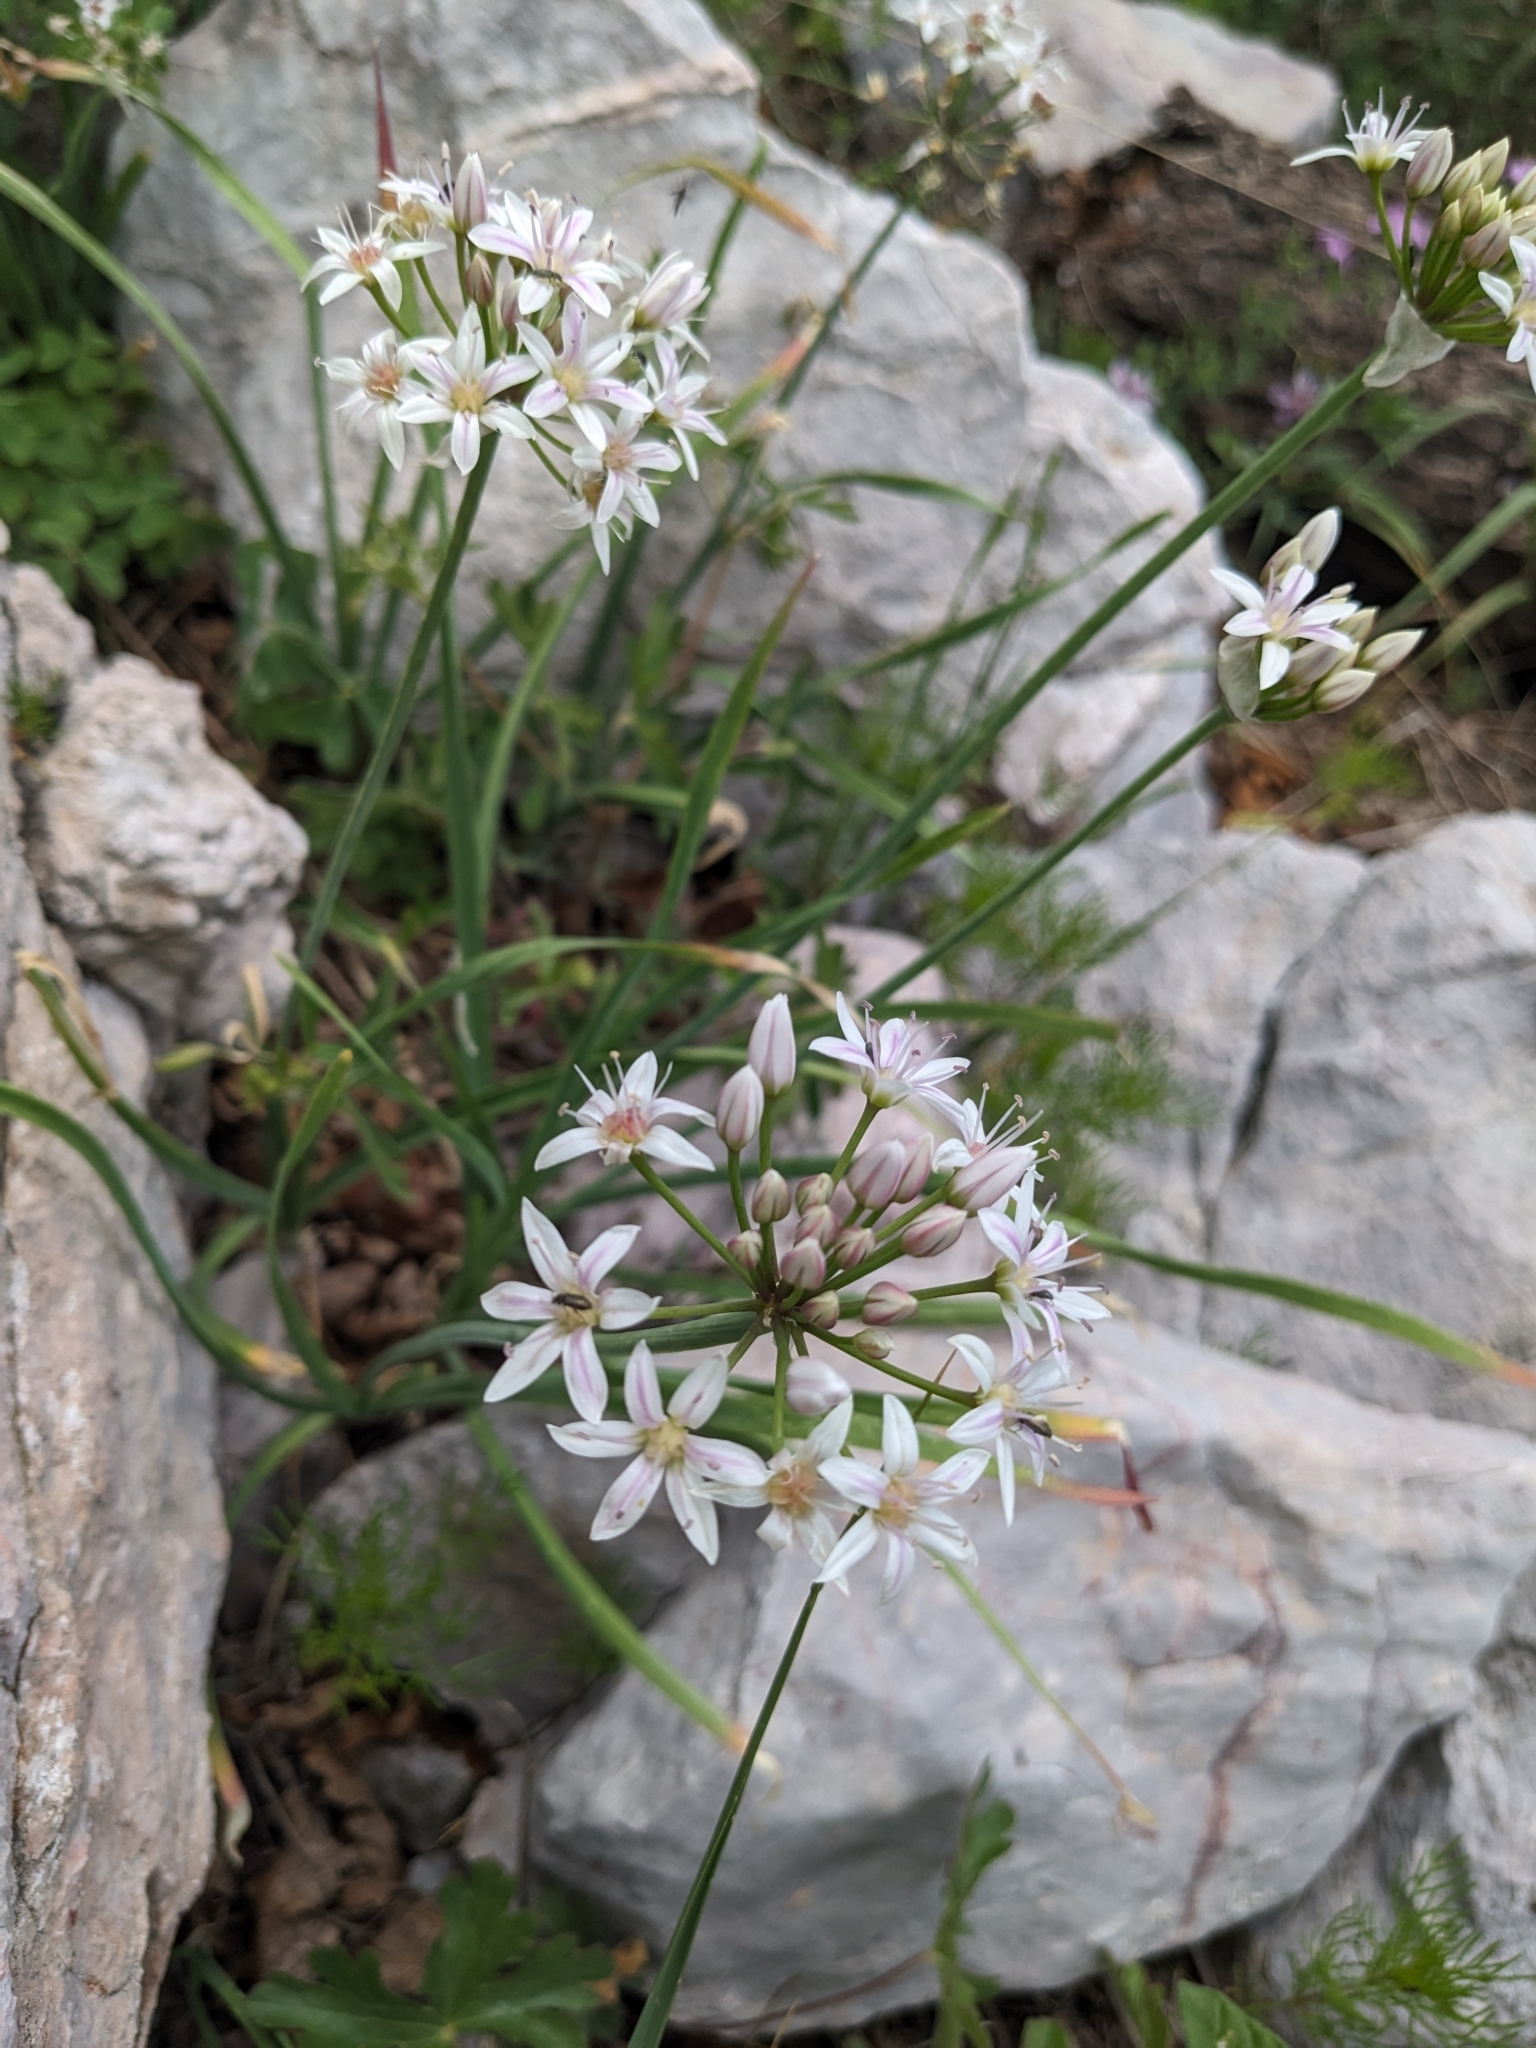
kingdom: Plantae
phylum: Tracheophyta
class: Liliopsida
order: Asparagales
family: Amaryllidaceae
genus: Allium
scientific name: Allium plummerae
